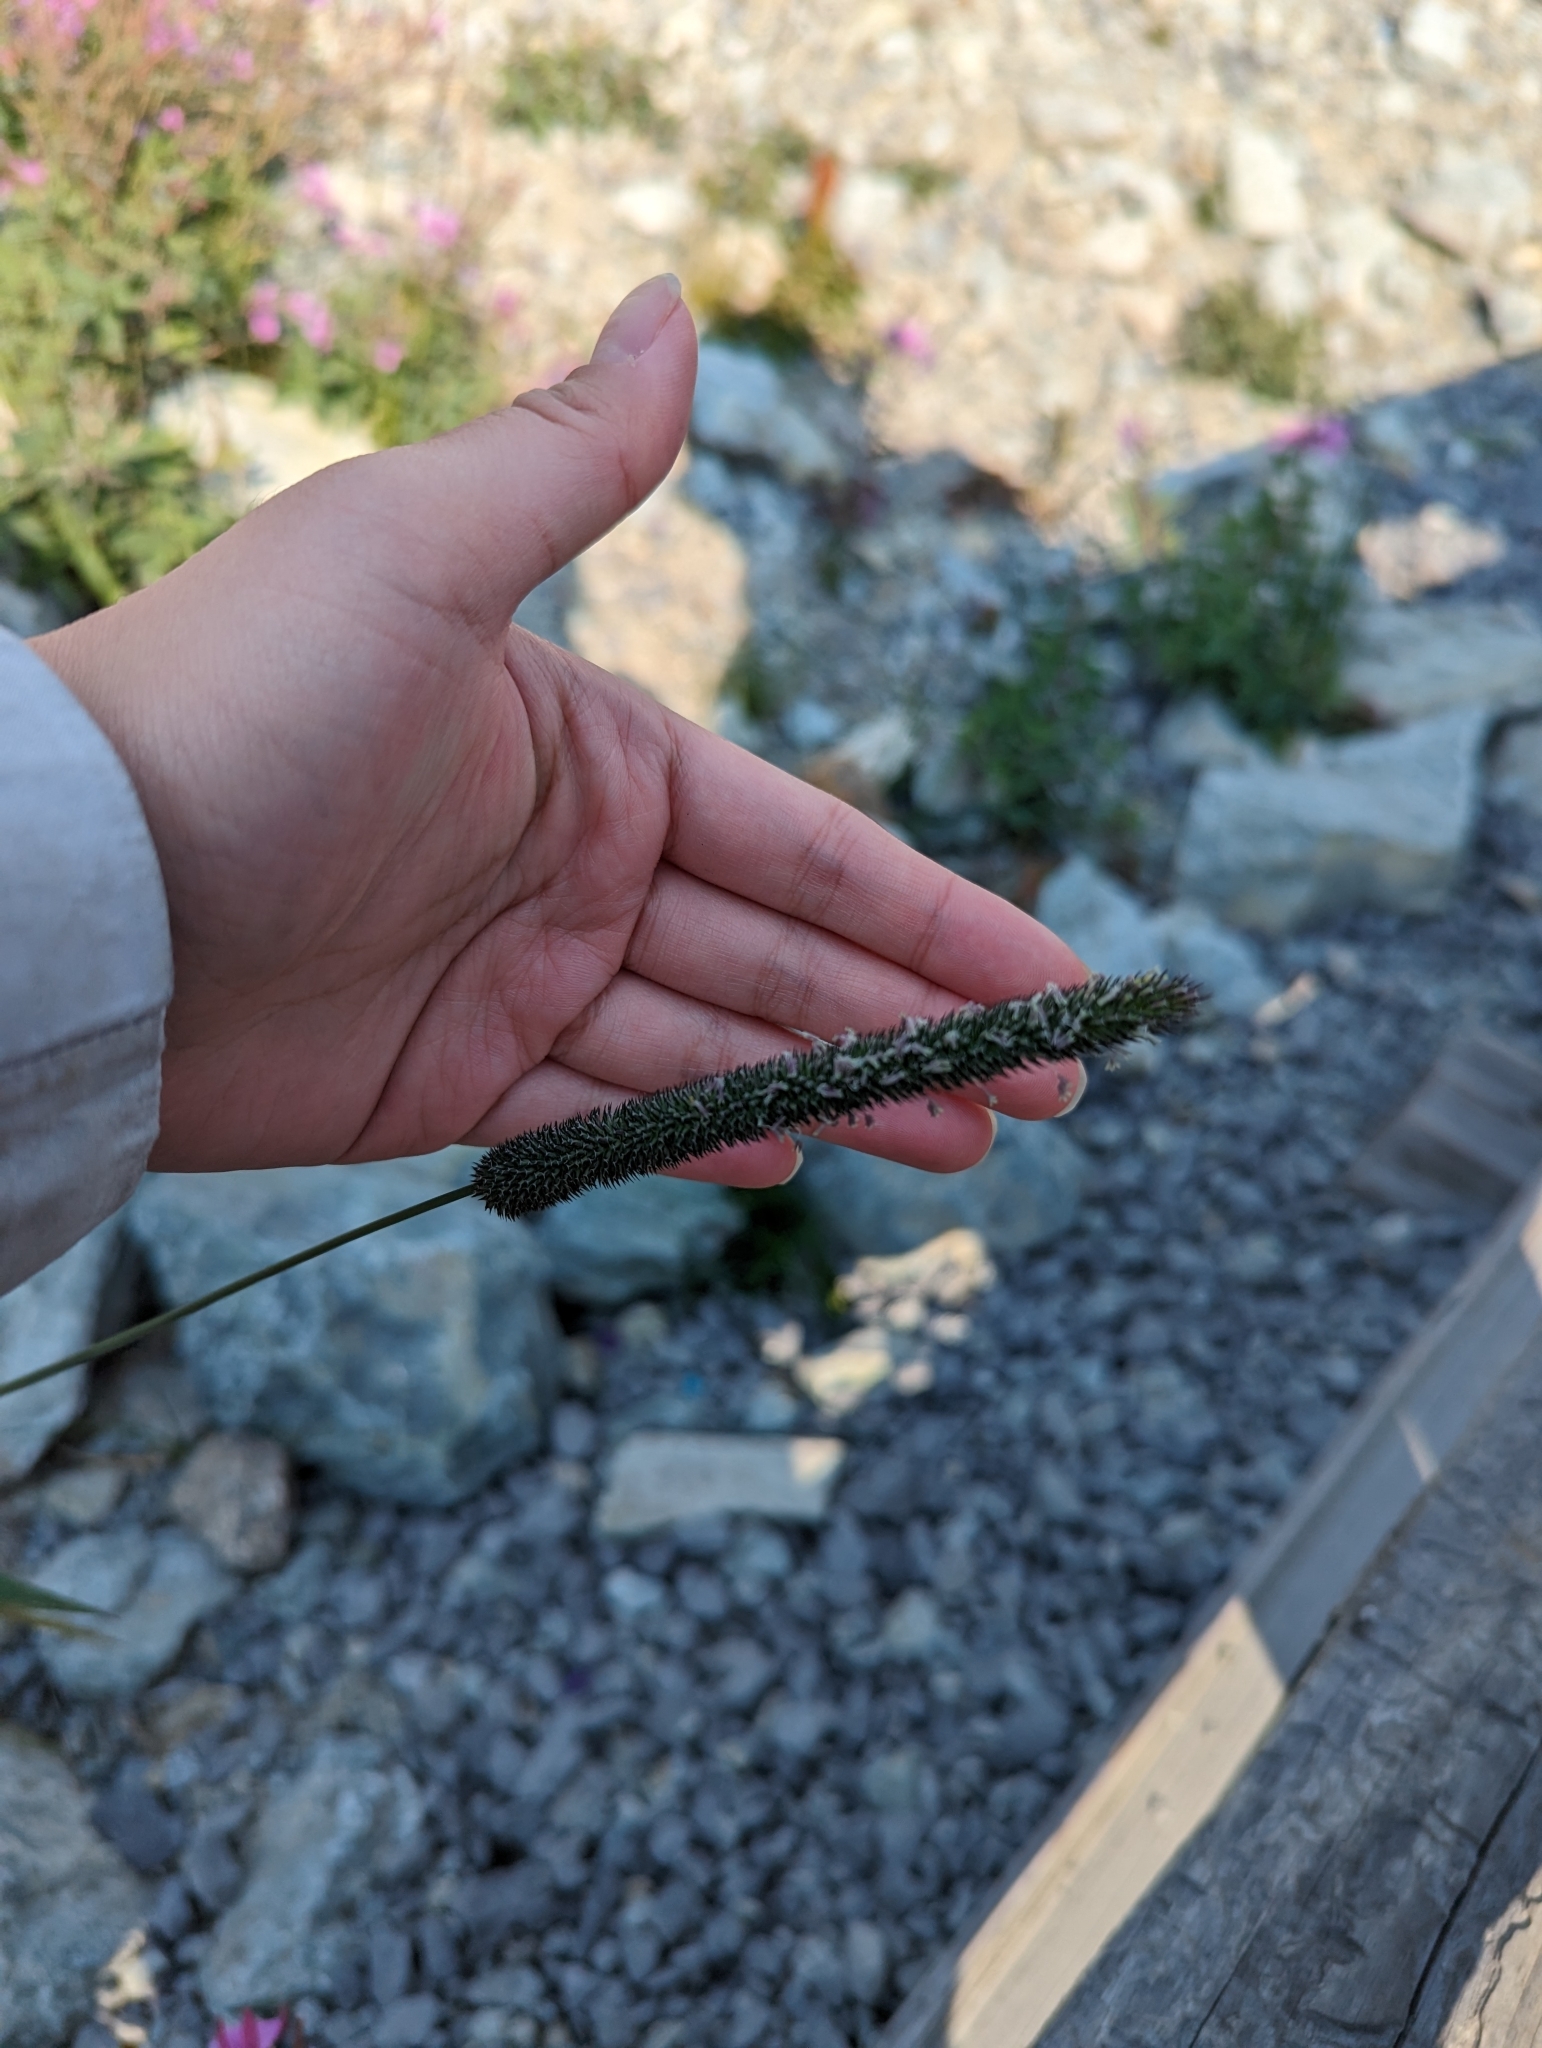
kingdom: Plantae
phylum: Tracheophyta
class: Liliopsida
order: Poales
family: Poaceae
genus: Phleum
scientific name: Phleum pratense
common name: Timothy grass
